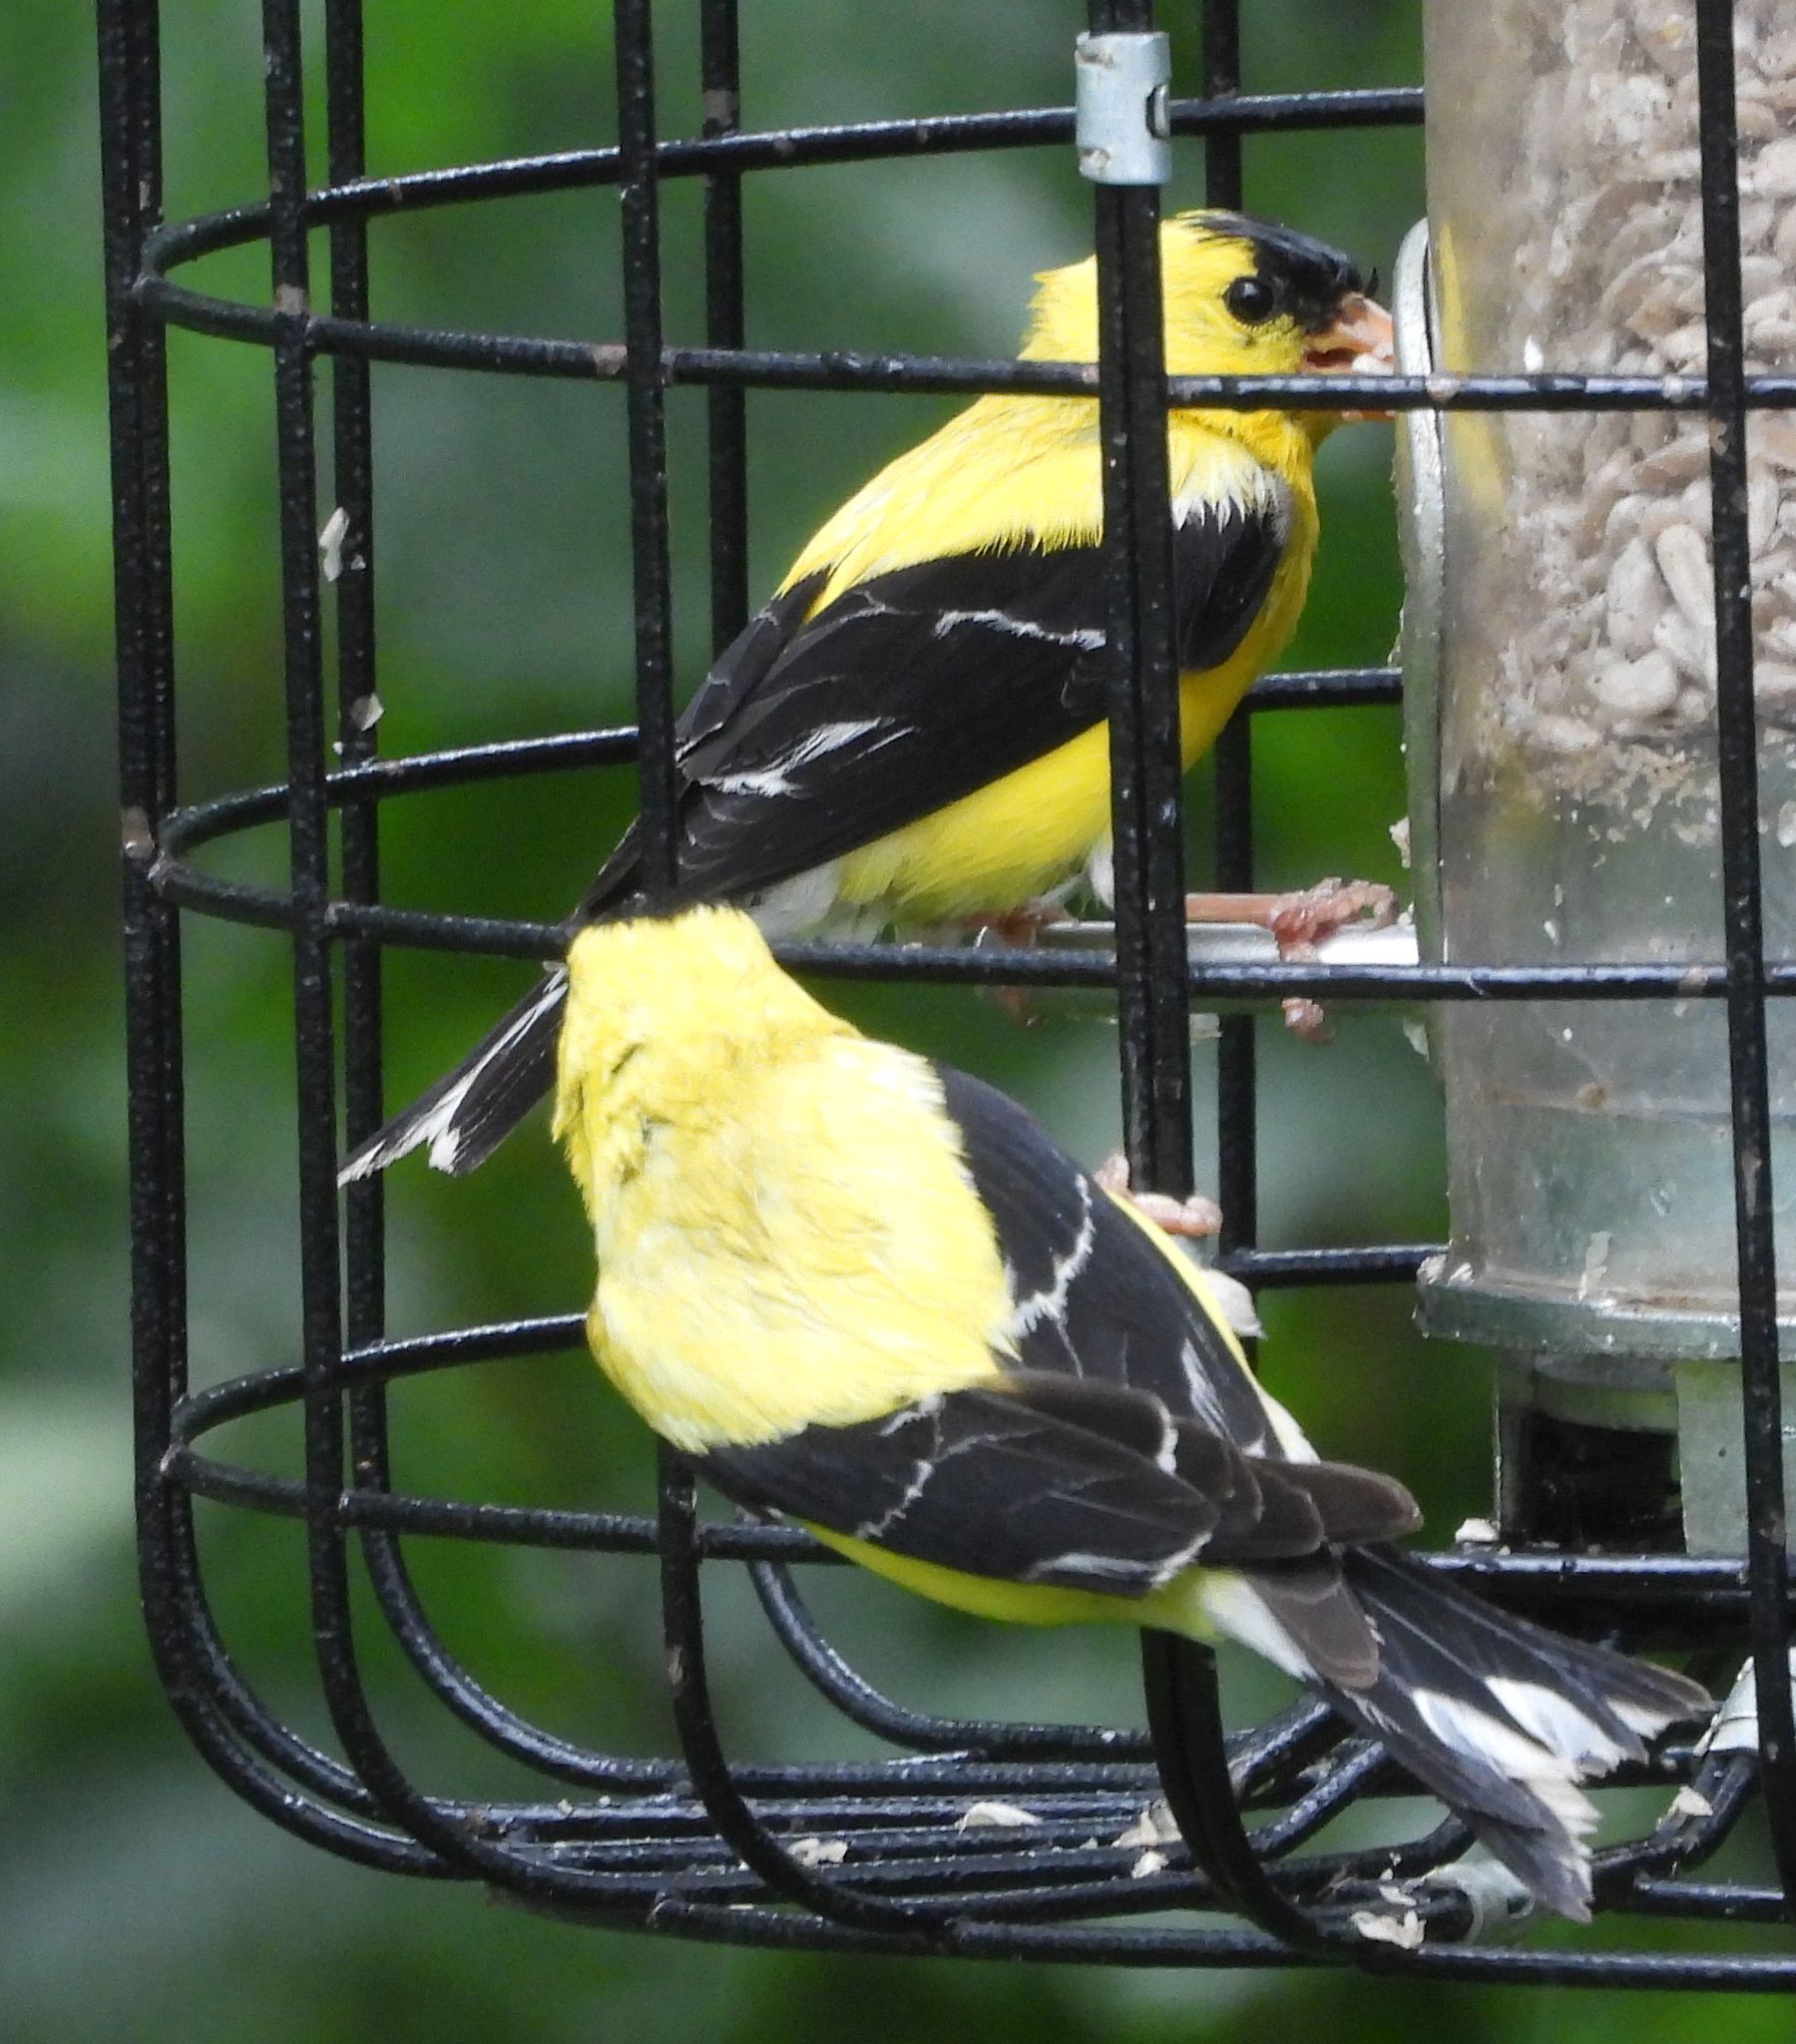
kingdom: Animalia
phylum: Chordata
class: Aves
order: Passeriformes
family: Fringillidae
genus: Spinus
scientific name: Spinus tristis
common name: American goldfinch
